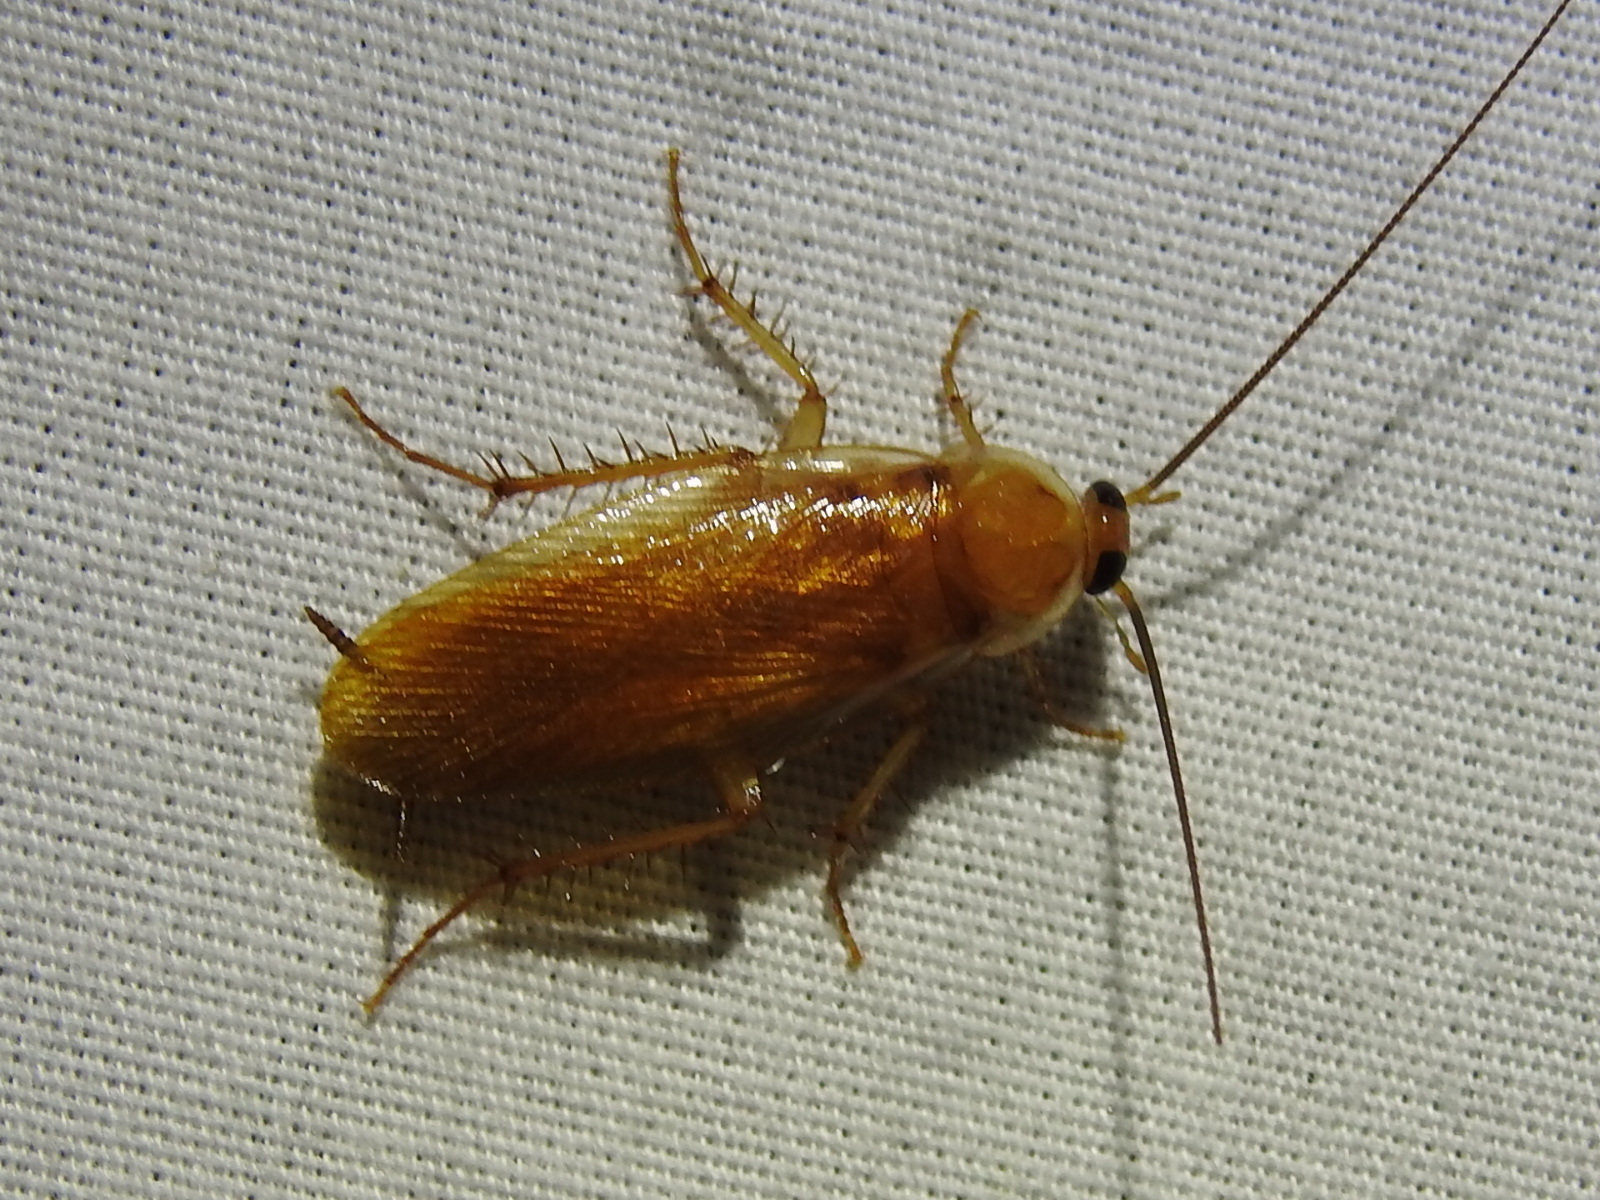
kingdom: Animalia
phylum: Arthropoda
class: Insecta
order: Blattodea
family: Blattidae
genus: Periplaneta
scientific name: Periplaneta lateralis
